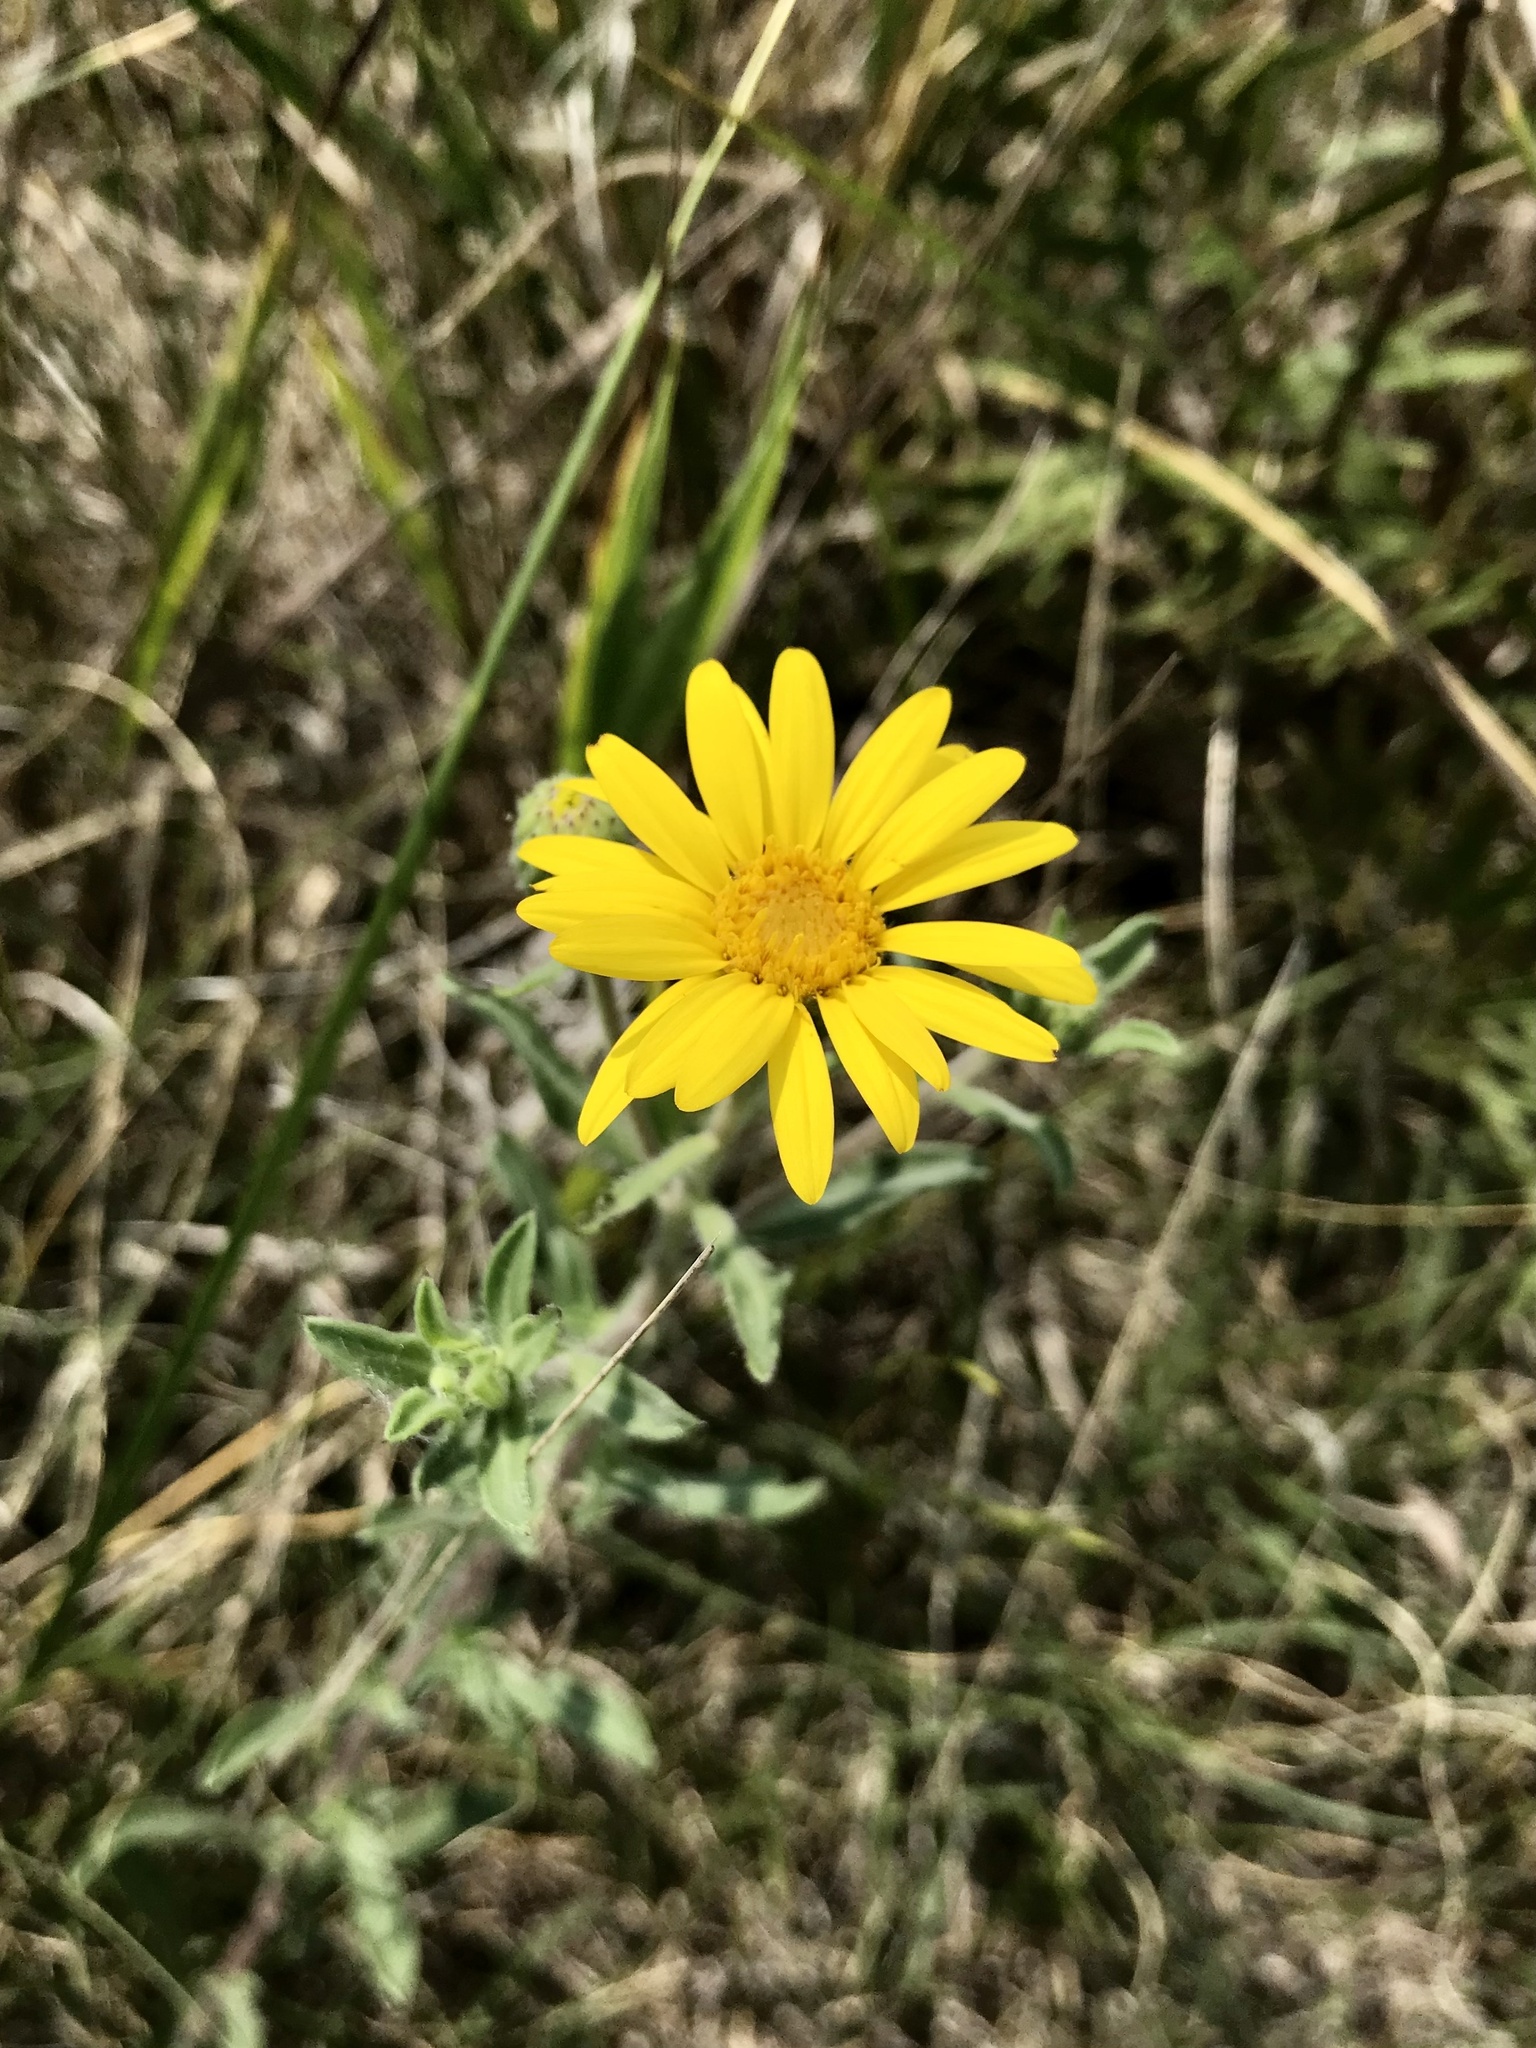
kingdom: Plantae
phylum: Tracheophyta
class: Magnoliopsida
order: Asterales
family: Asteraceae
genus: Heterotheca
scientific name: Heterotheca villosa
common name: Hairy false goldenaster
